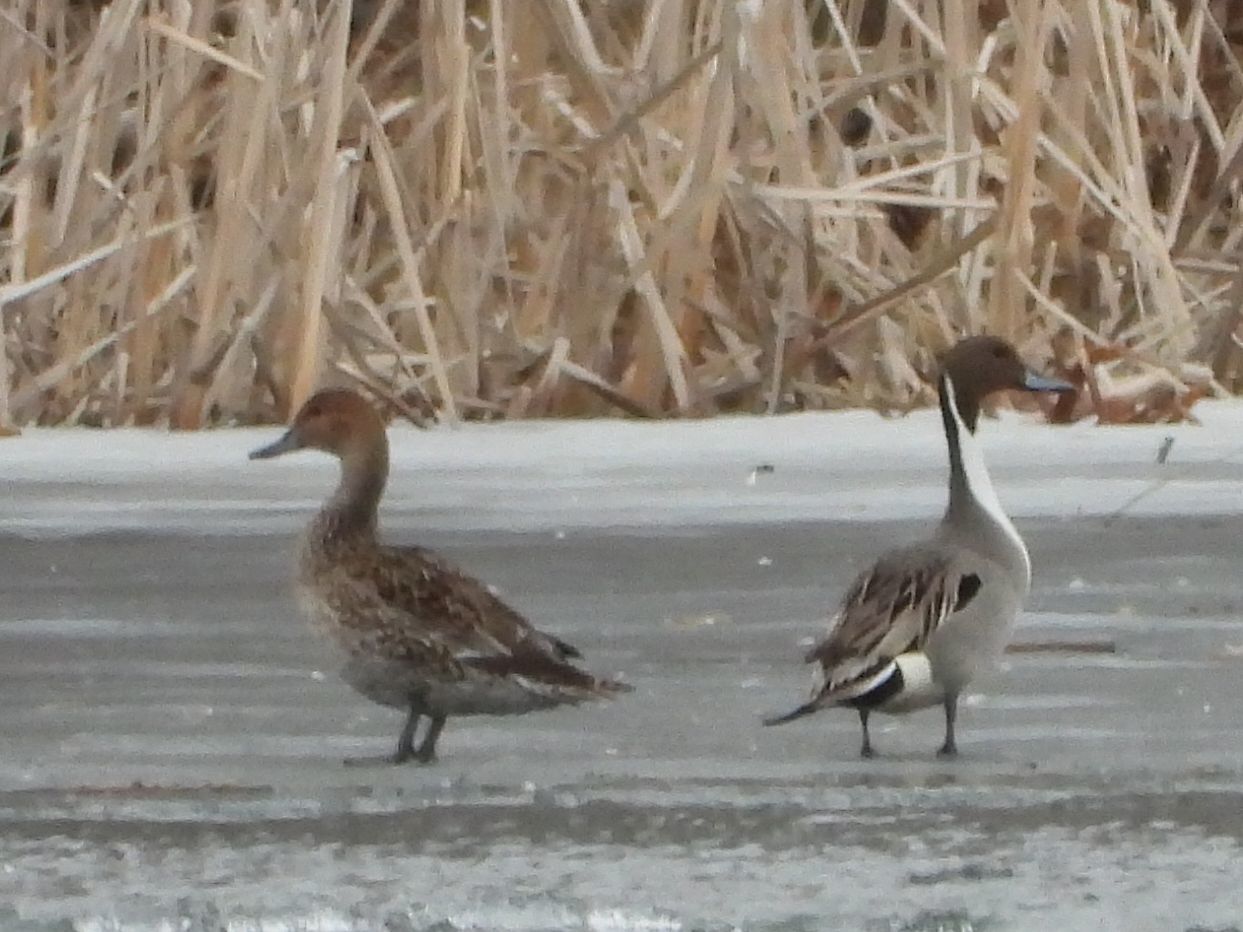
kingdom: Animalia
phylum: Chordata
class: Aves
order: Anseriformes
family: Anatidae
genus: Anas
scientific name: Anas acuta
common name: Northern pintail
